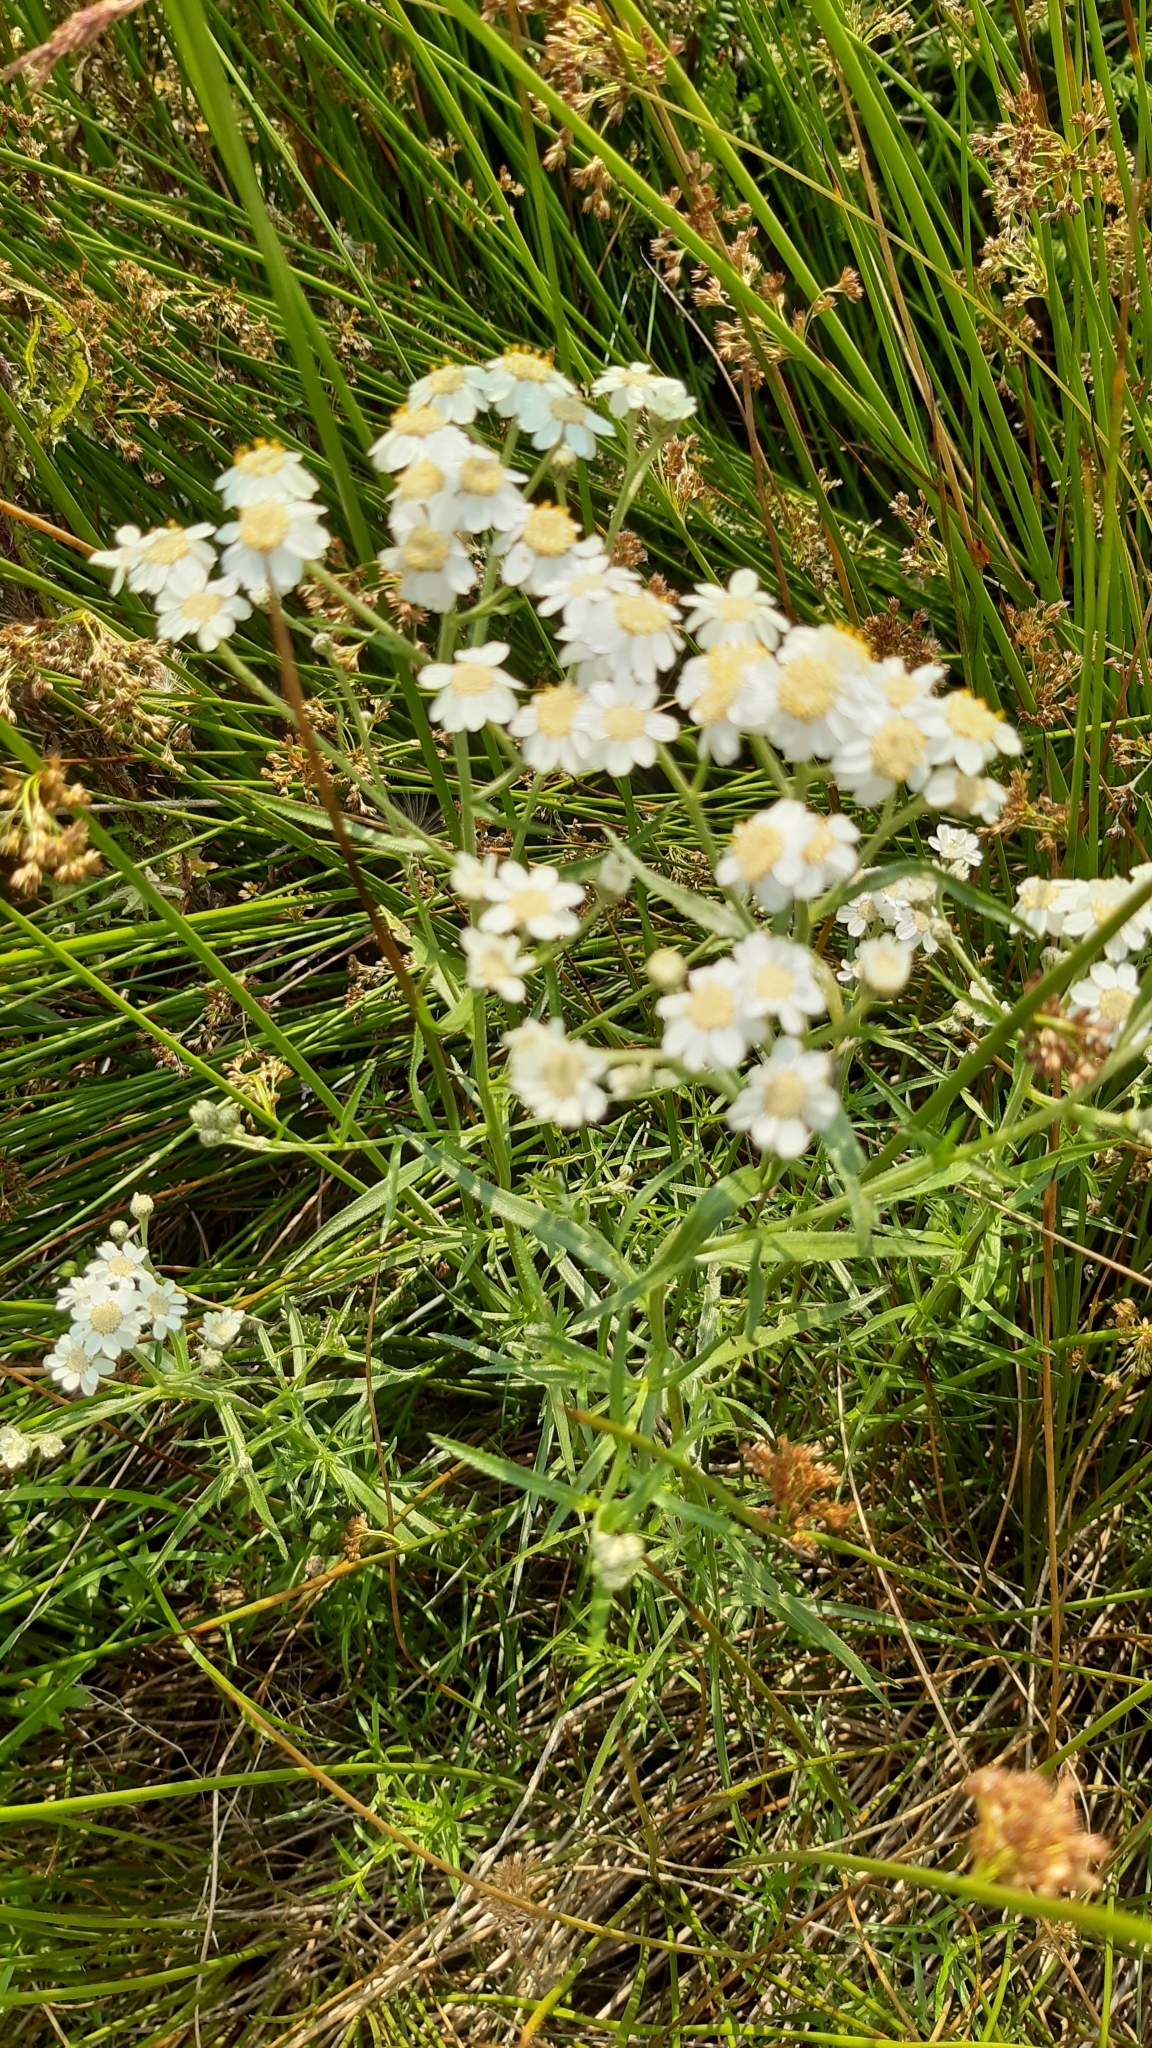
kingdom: Plantae
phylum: Tracheophyta
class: Magnoliopsida
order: Asterales
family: Asteraceae
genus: Achillea
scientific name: Achillea ptarmica
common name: Sneezeweed
